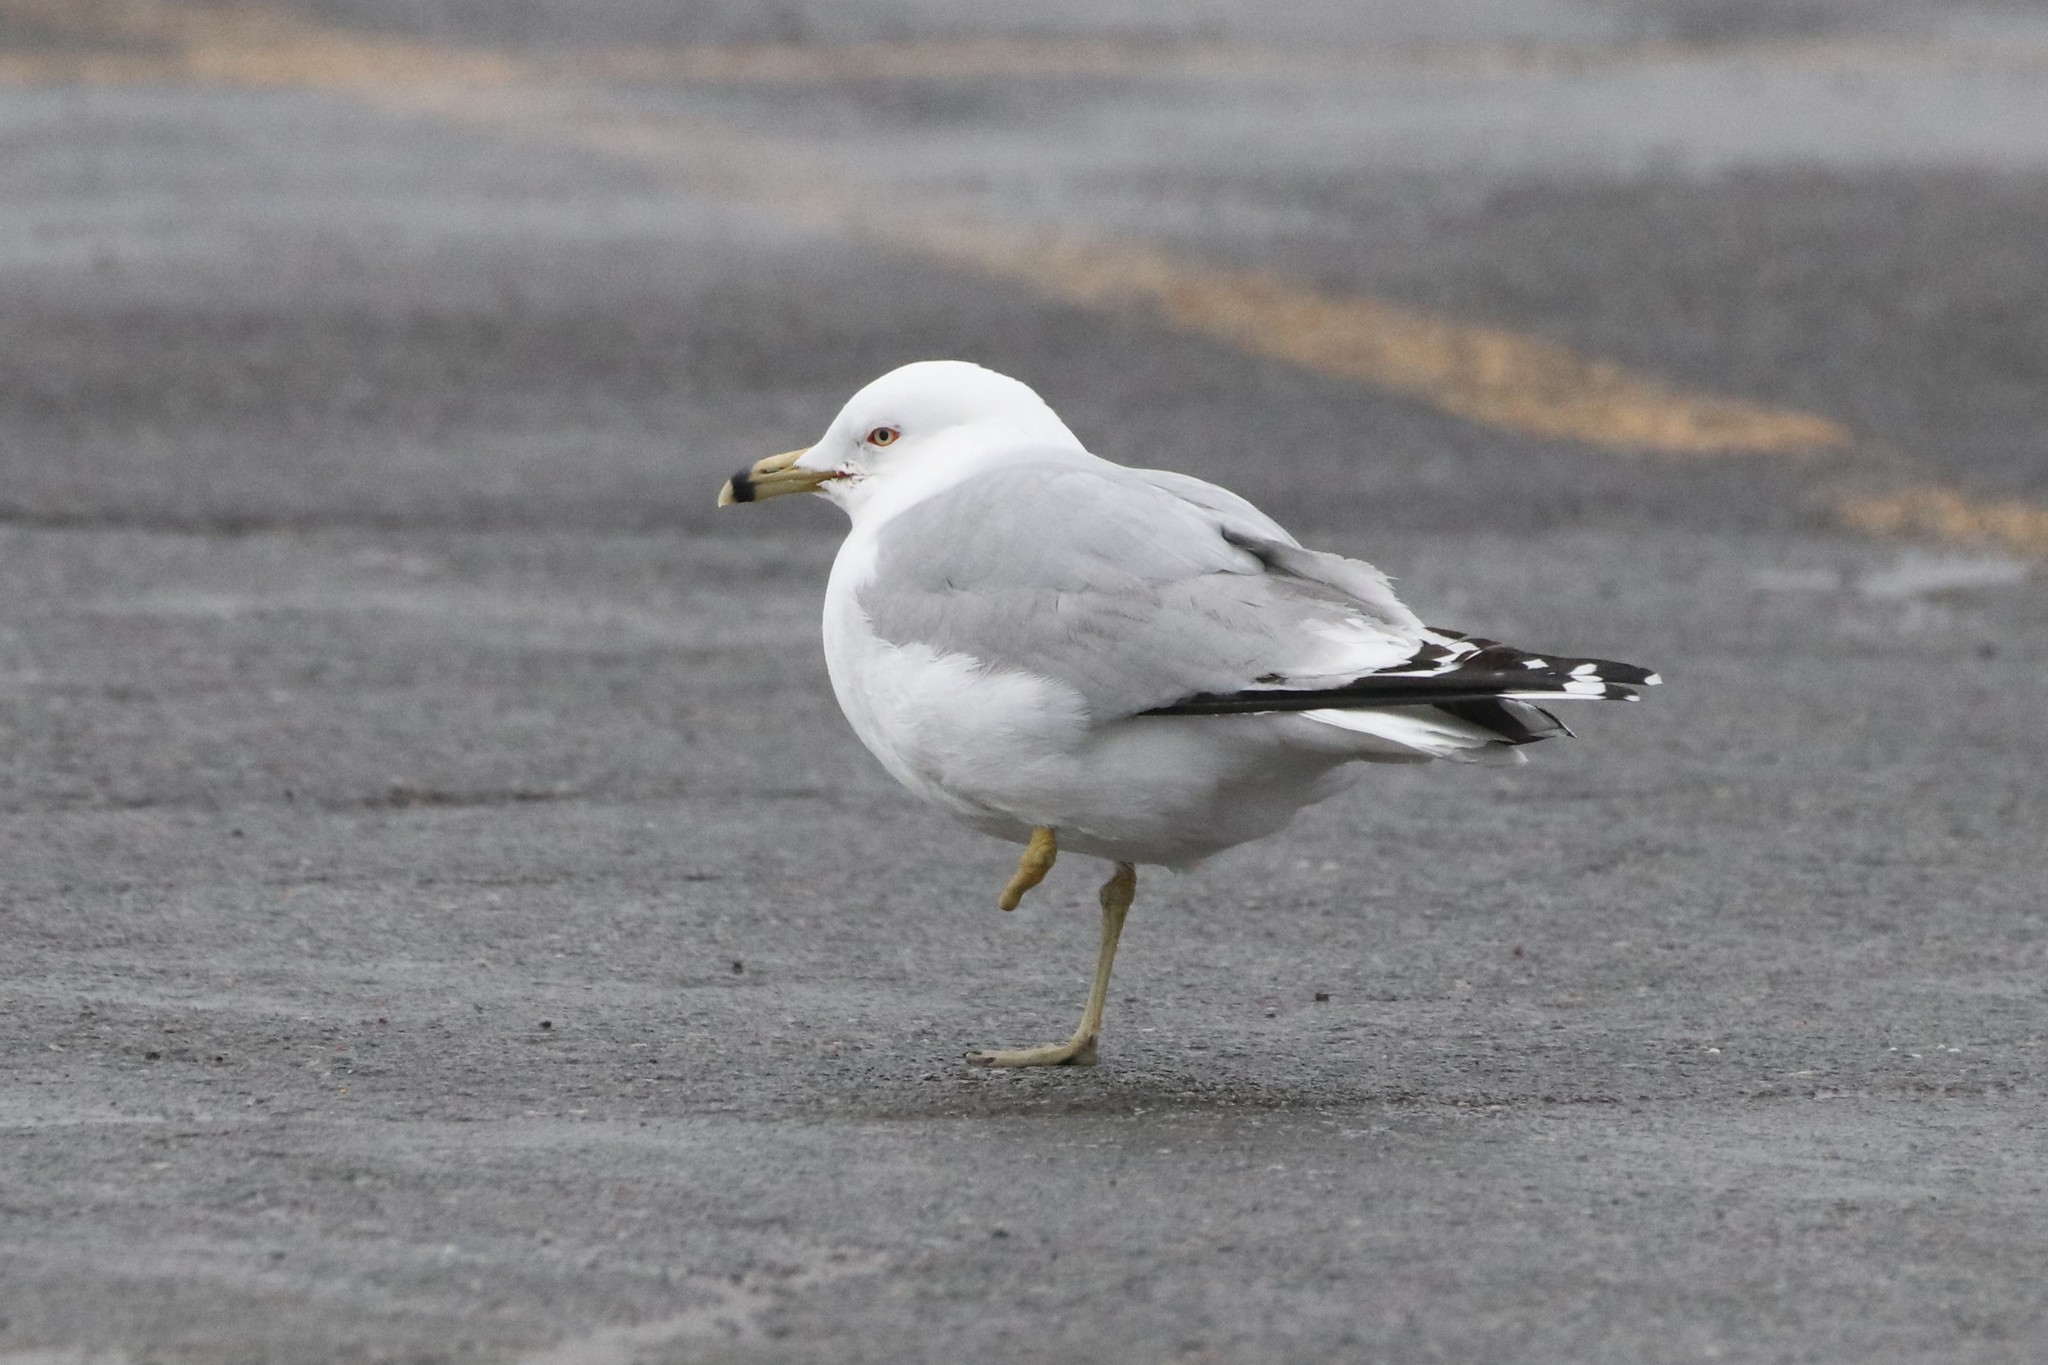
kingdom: Animalia
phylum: Chordata
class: Aves
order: Charadriiformes
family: Laridae
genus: Larus
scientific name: Larus delawarensis
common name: Ring-billed gull
